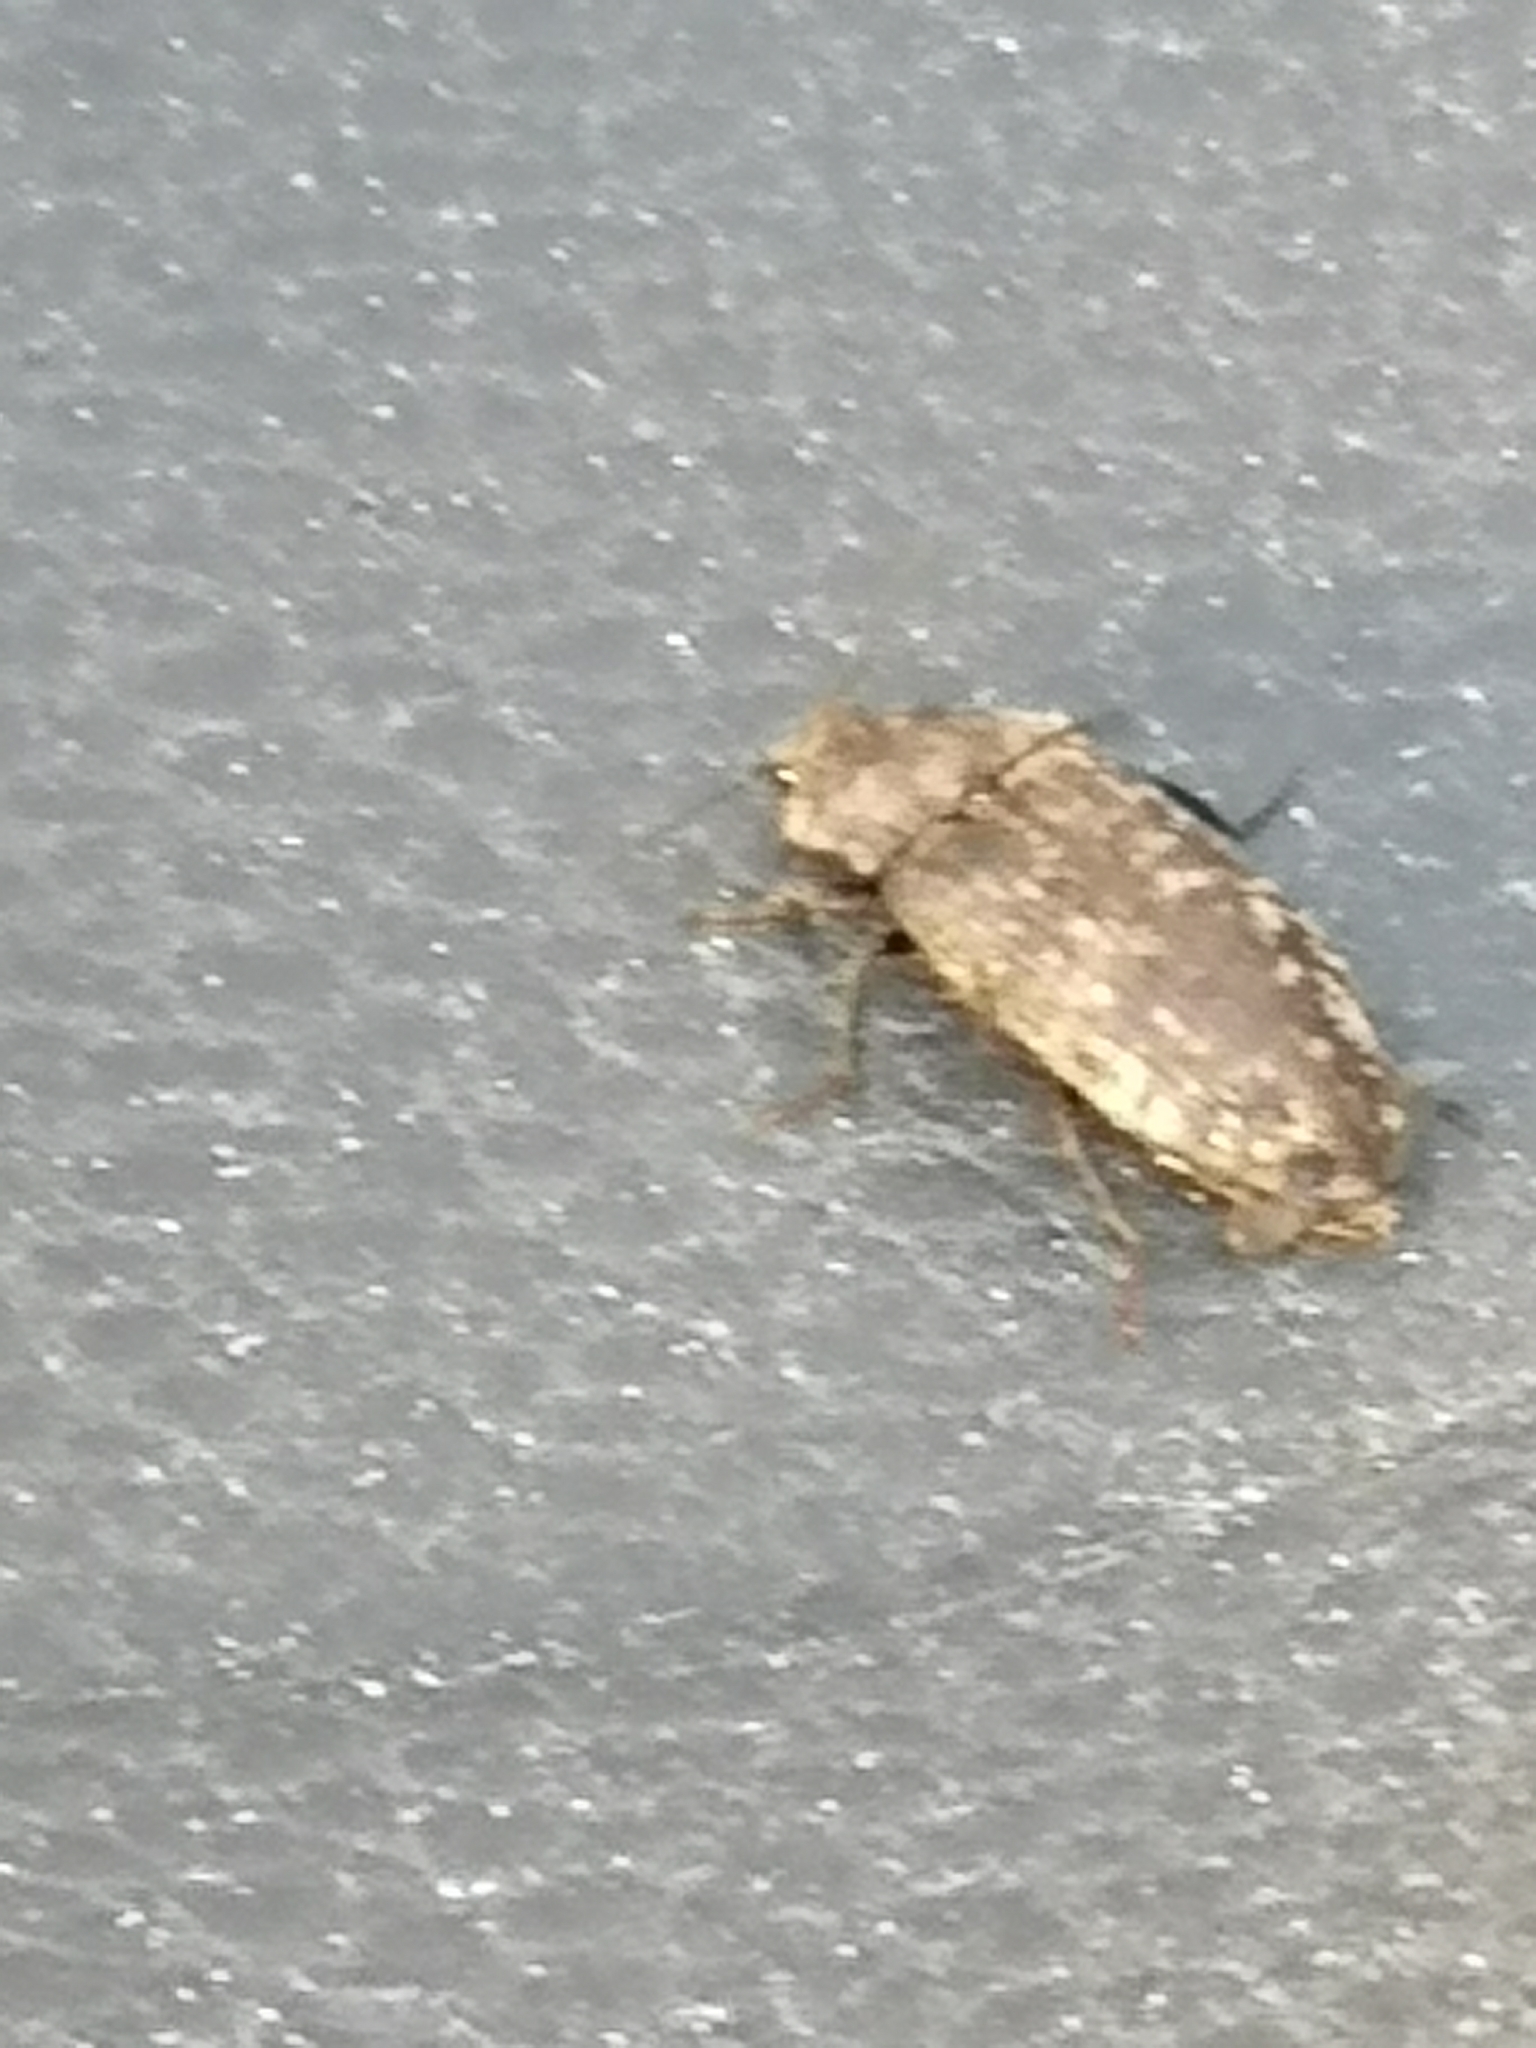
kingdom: Animalia
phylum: Arthropoda
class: Insecta
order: Coleoptera
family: Elateridae
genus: Agrypnus
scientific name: Agrypnus murinus
